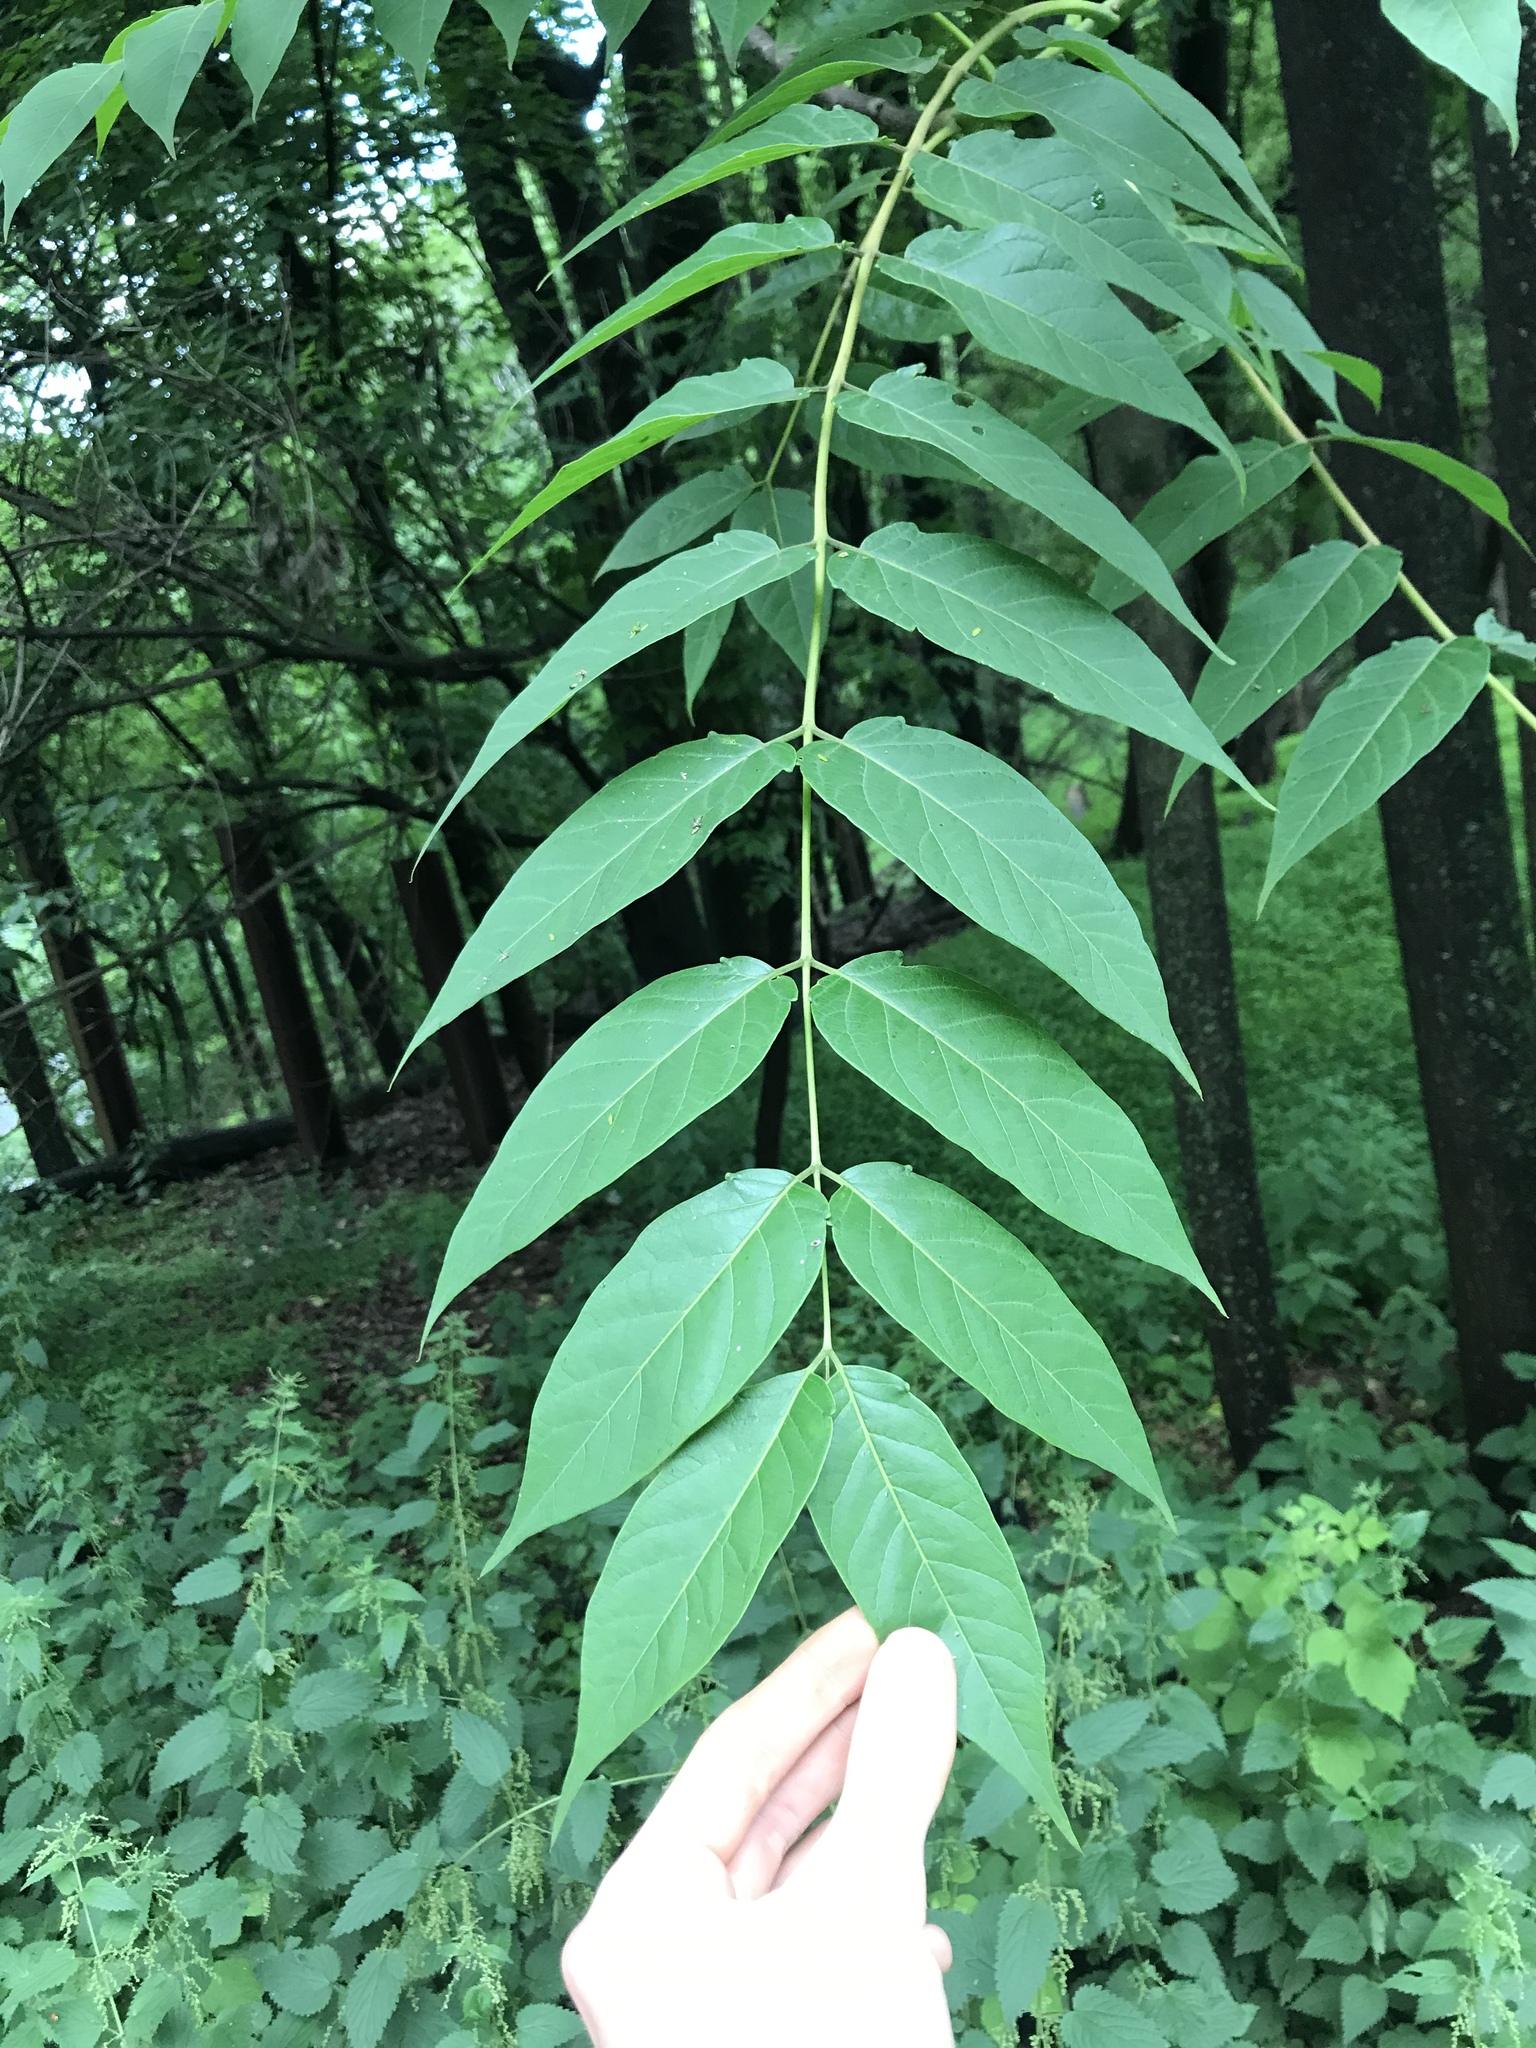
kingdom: Plantae
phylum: Tracheophyta
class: Magnoliopsida
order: Sapindales
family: Simaroubaceae
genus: Ailanthus
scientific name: Ailanthus altissima
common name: Tree-of-heaven
